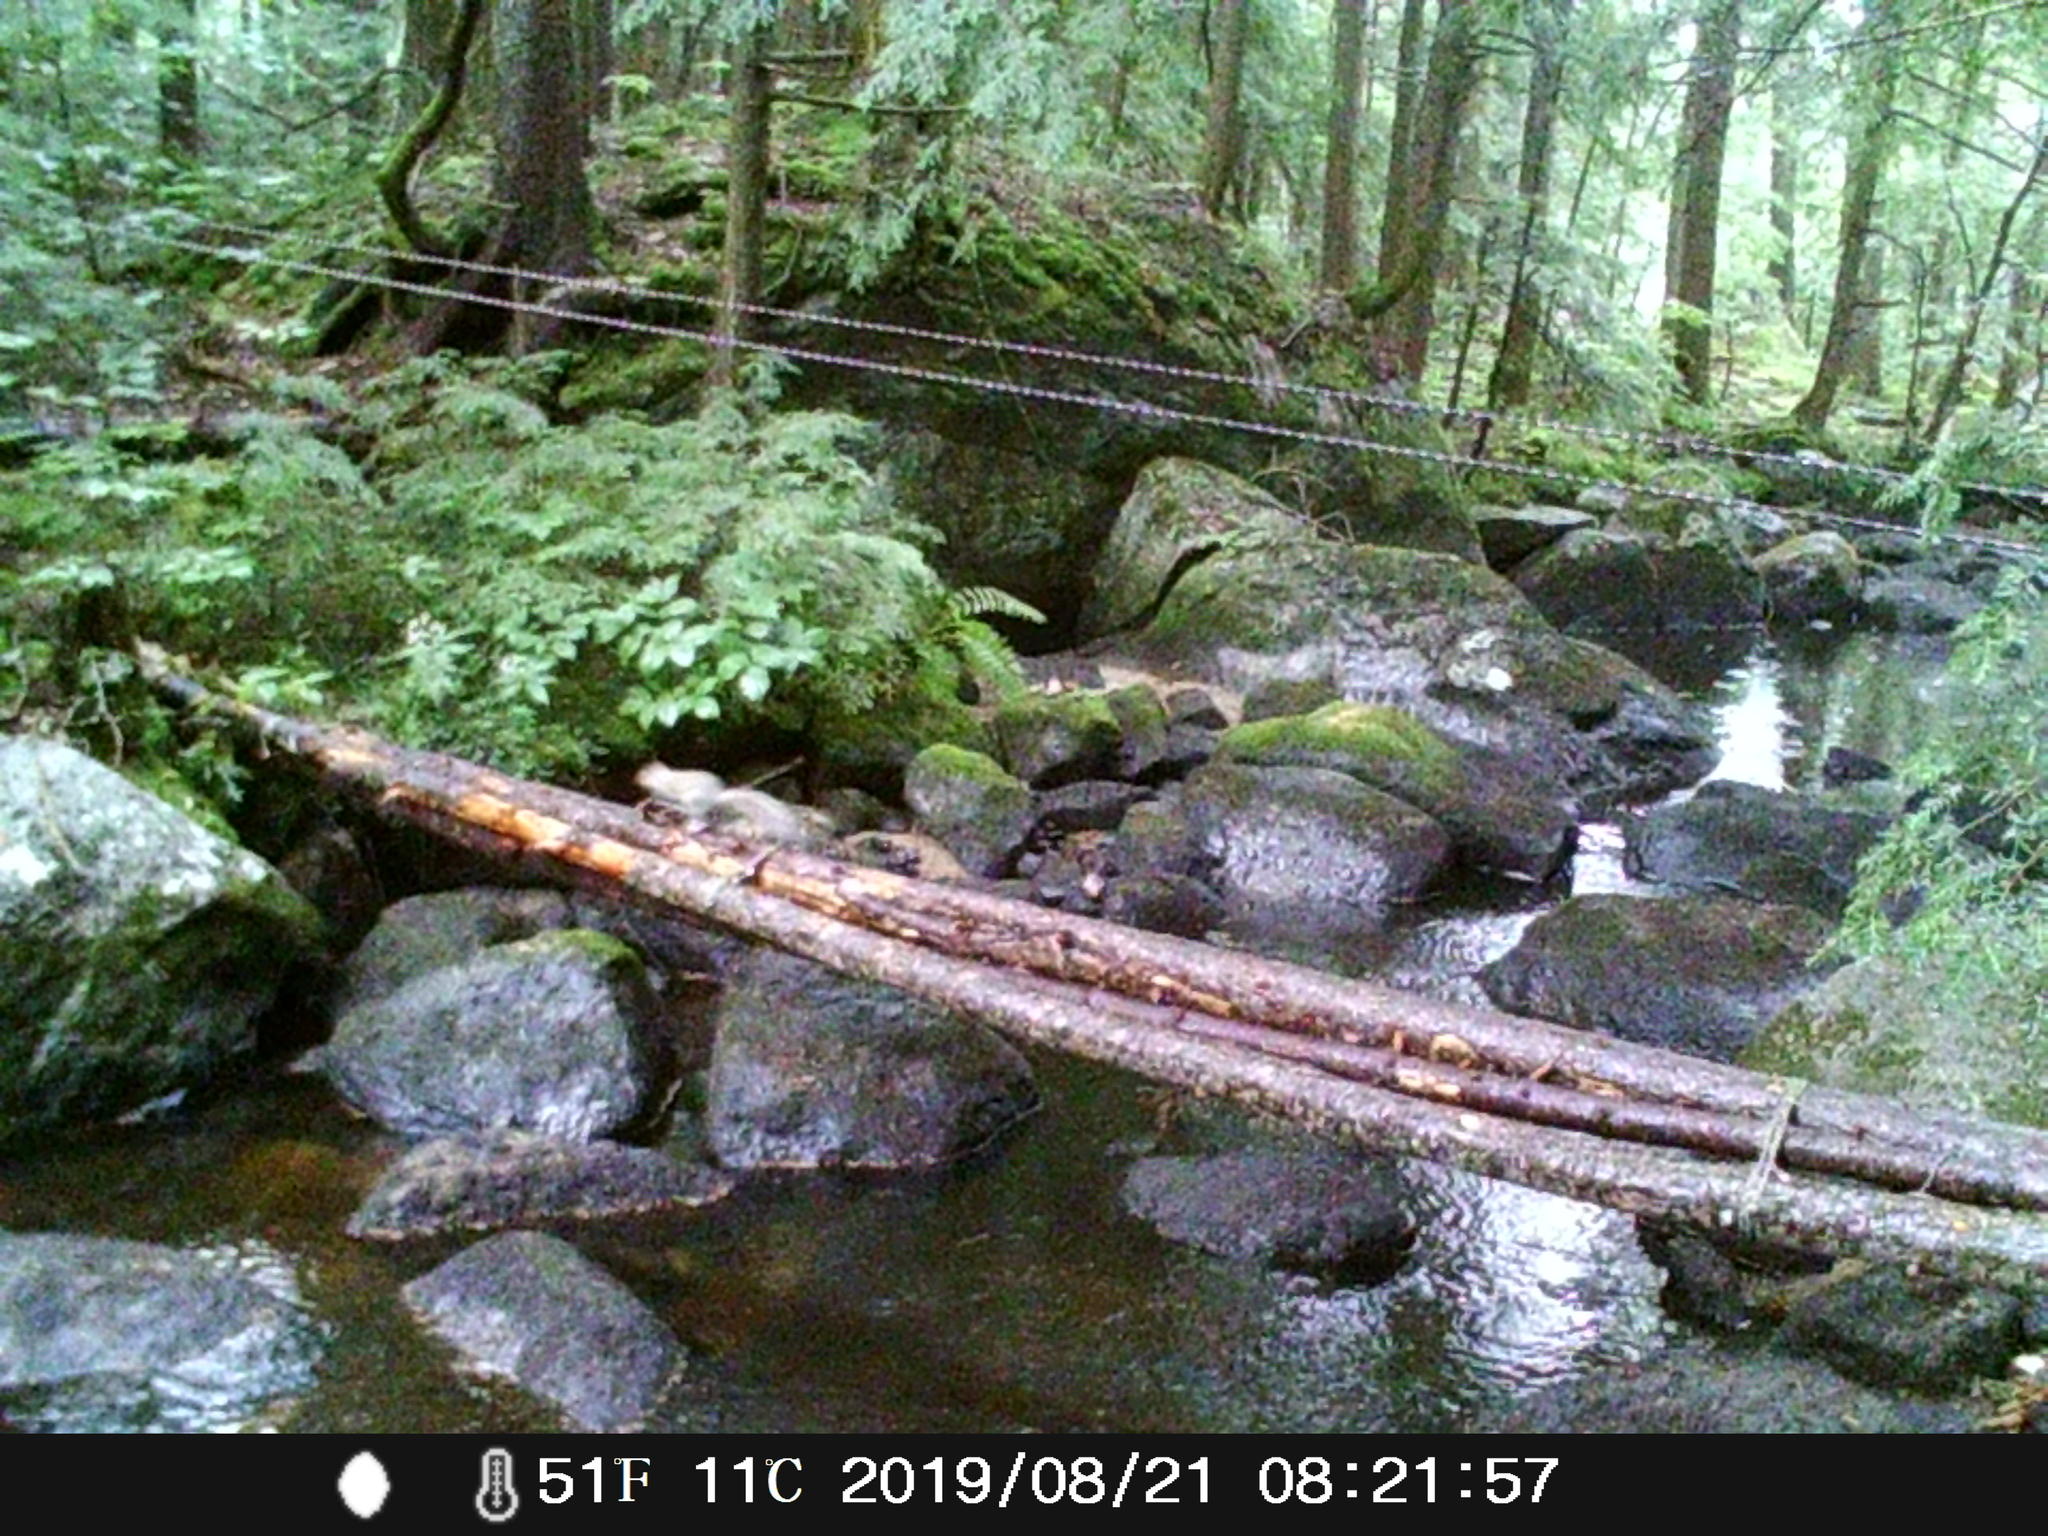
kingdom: Animalia
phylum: Chordata
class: Mammalia
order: Rodentia
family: Sciuridae
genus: Sciurus
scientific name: Sciurus carolinensis
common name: Eastern gray squirrel
